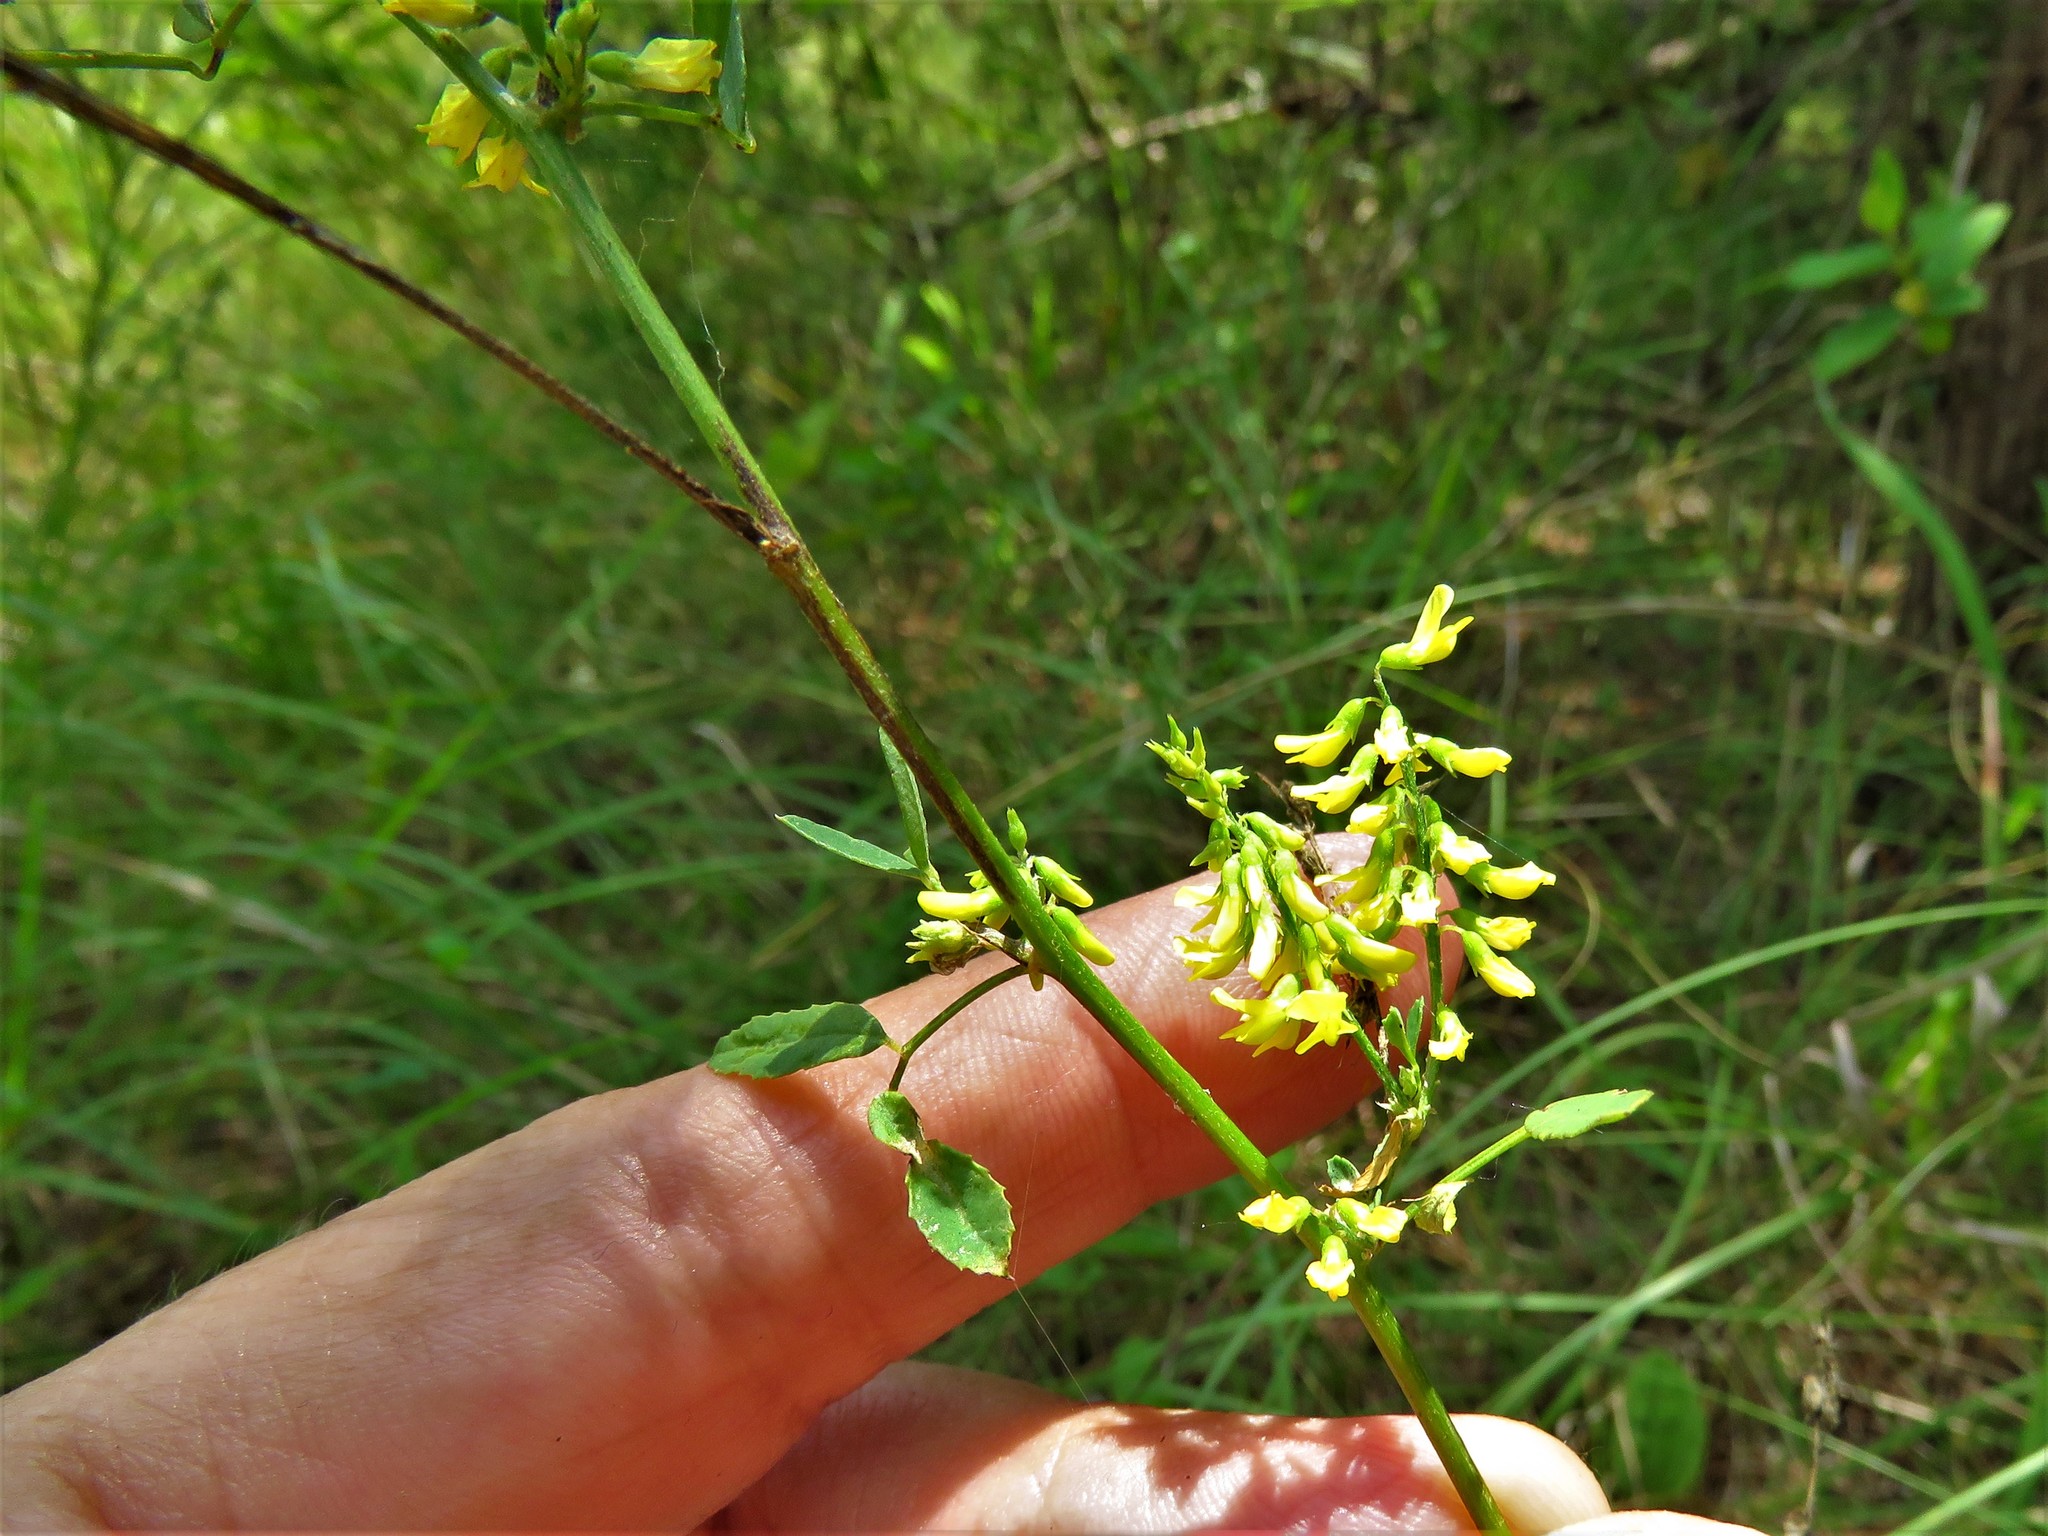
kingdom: Plantae
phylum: Tracheophyta
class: Magnoliopsida
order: Fabales
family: Fabaceae
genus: Melilotus
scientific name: Melilotus officinalis
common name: Sweetclover
